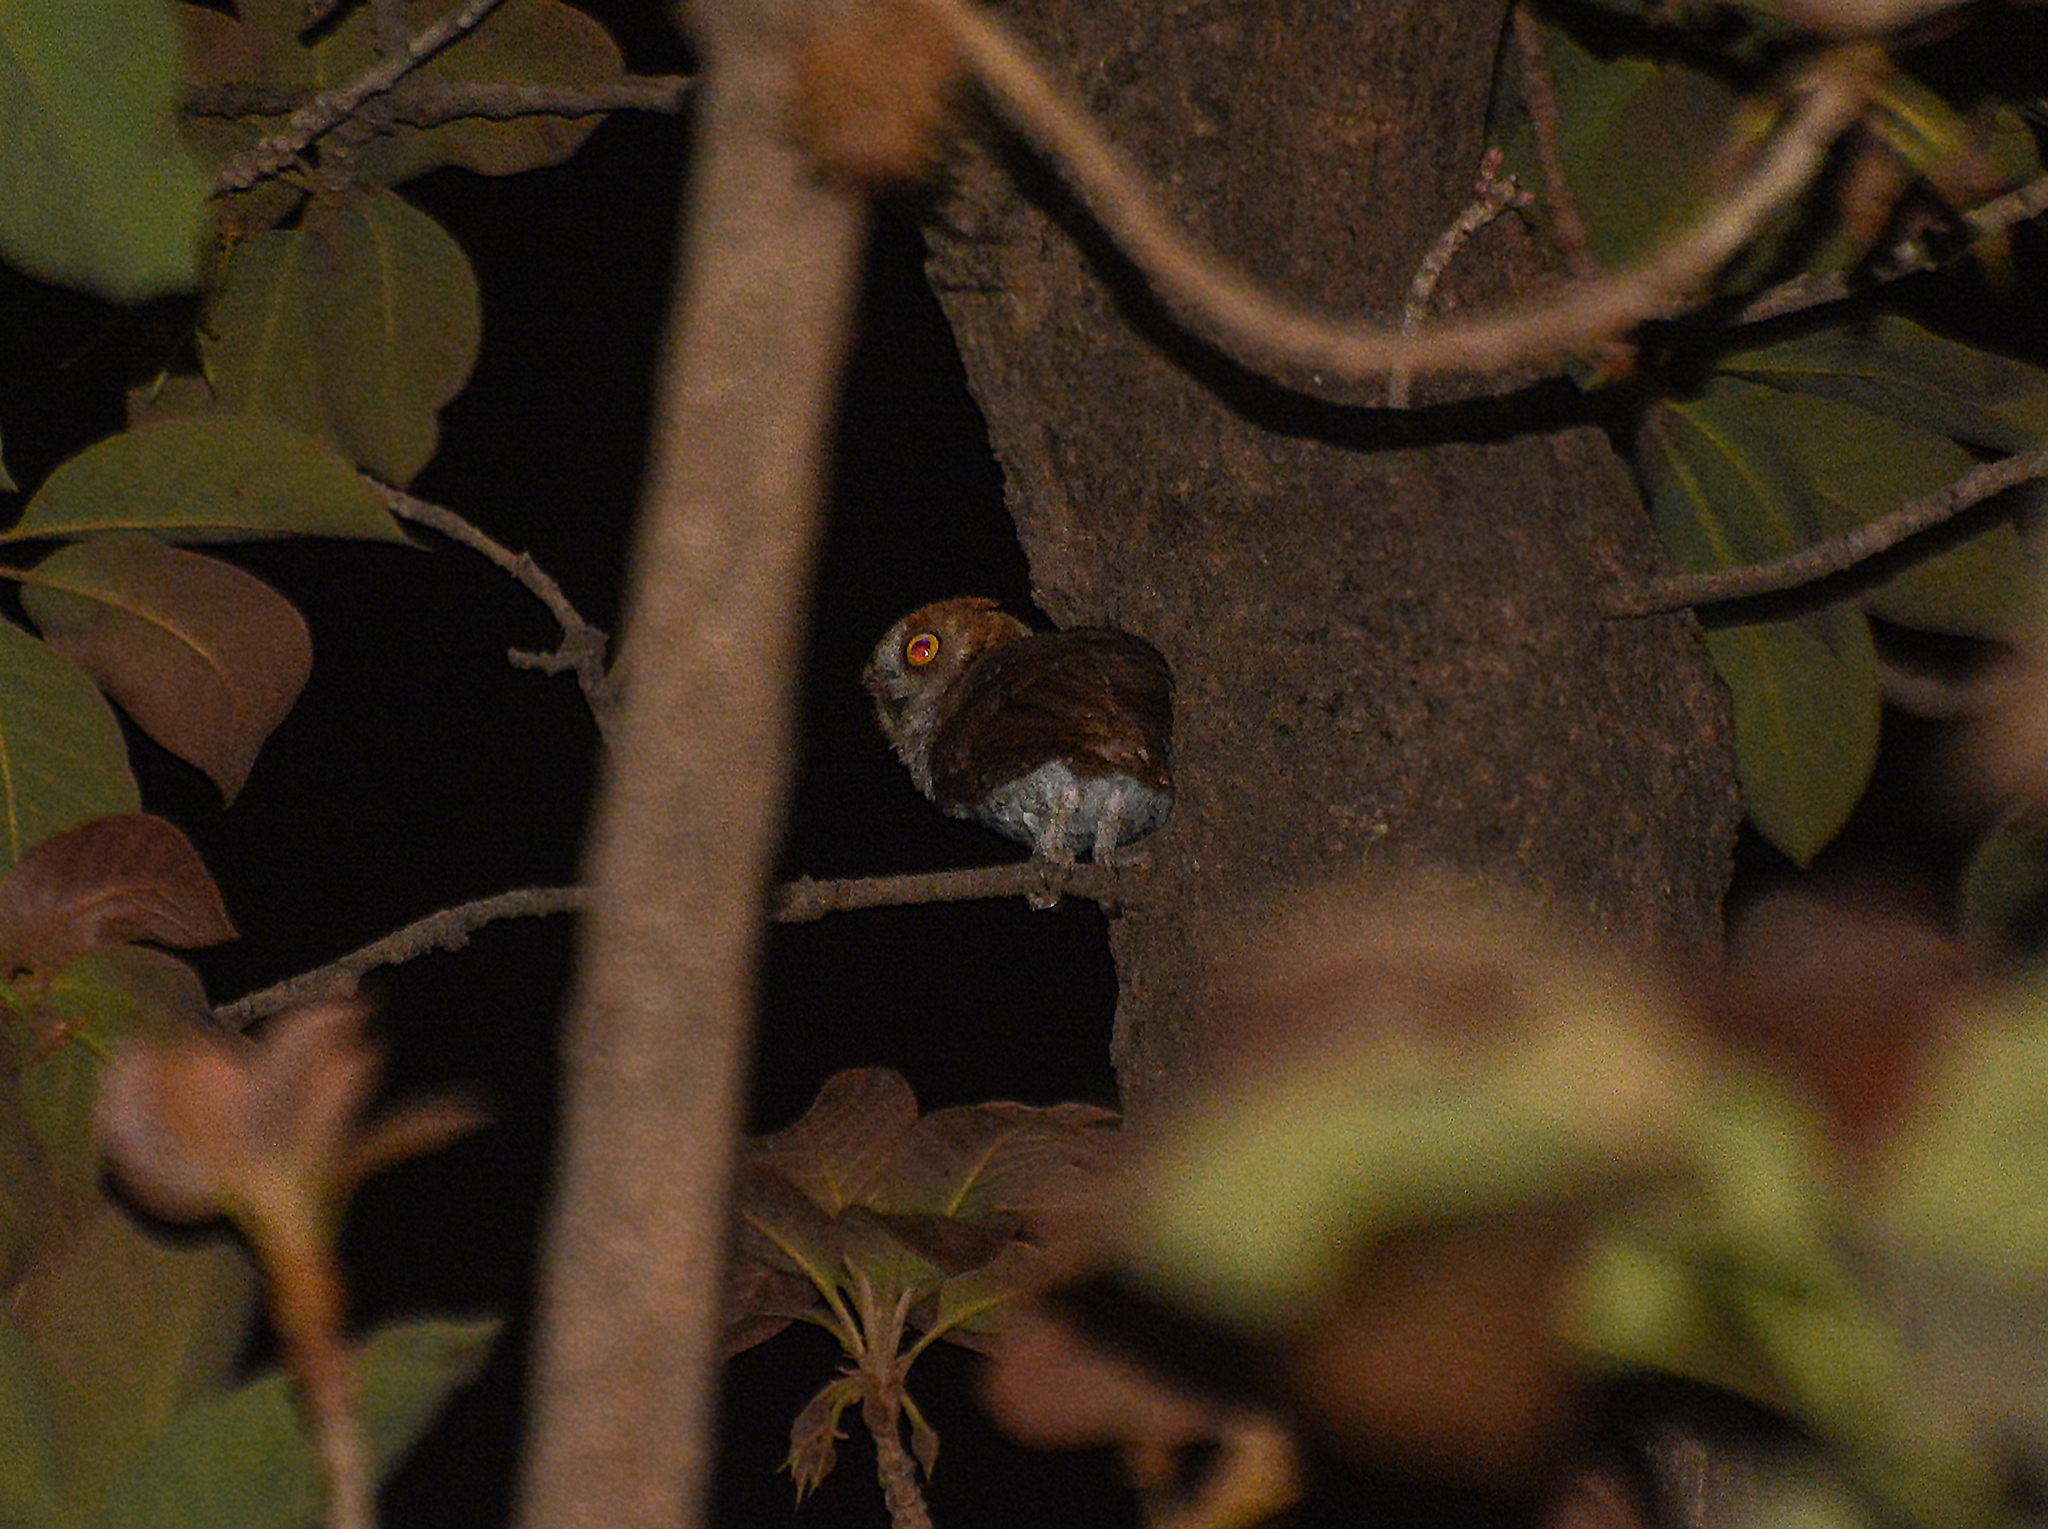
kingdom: Animalia
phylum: Chordata
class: Aves
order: Strigiformes
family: Strigidae
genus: Otus
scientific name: Otus sunia
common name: Oriental scops-owl
